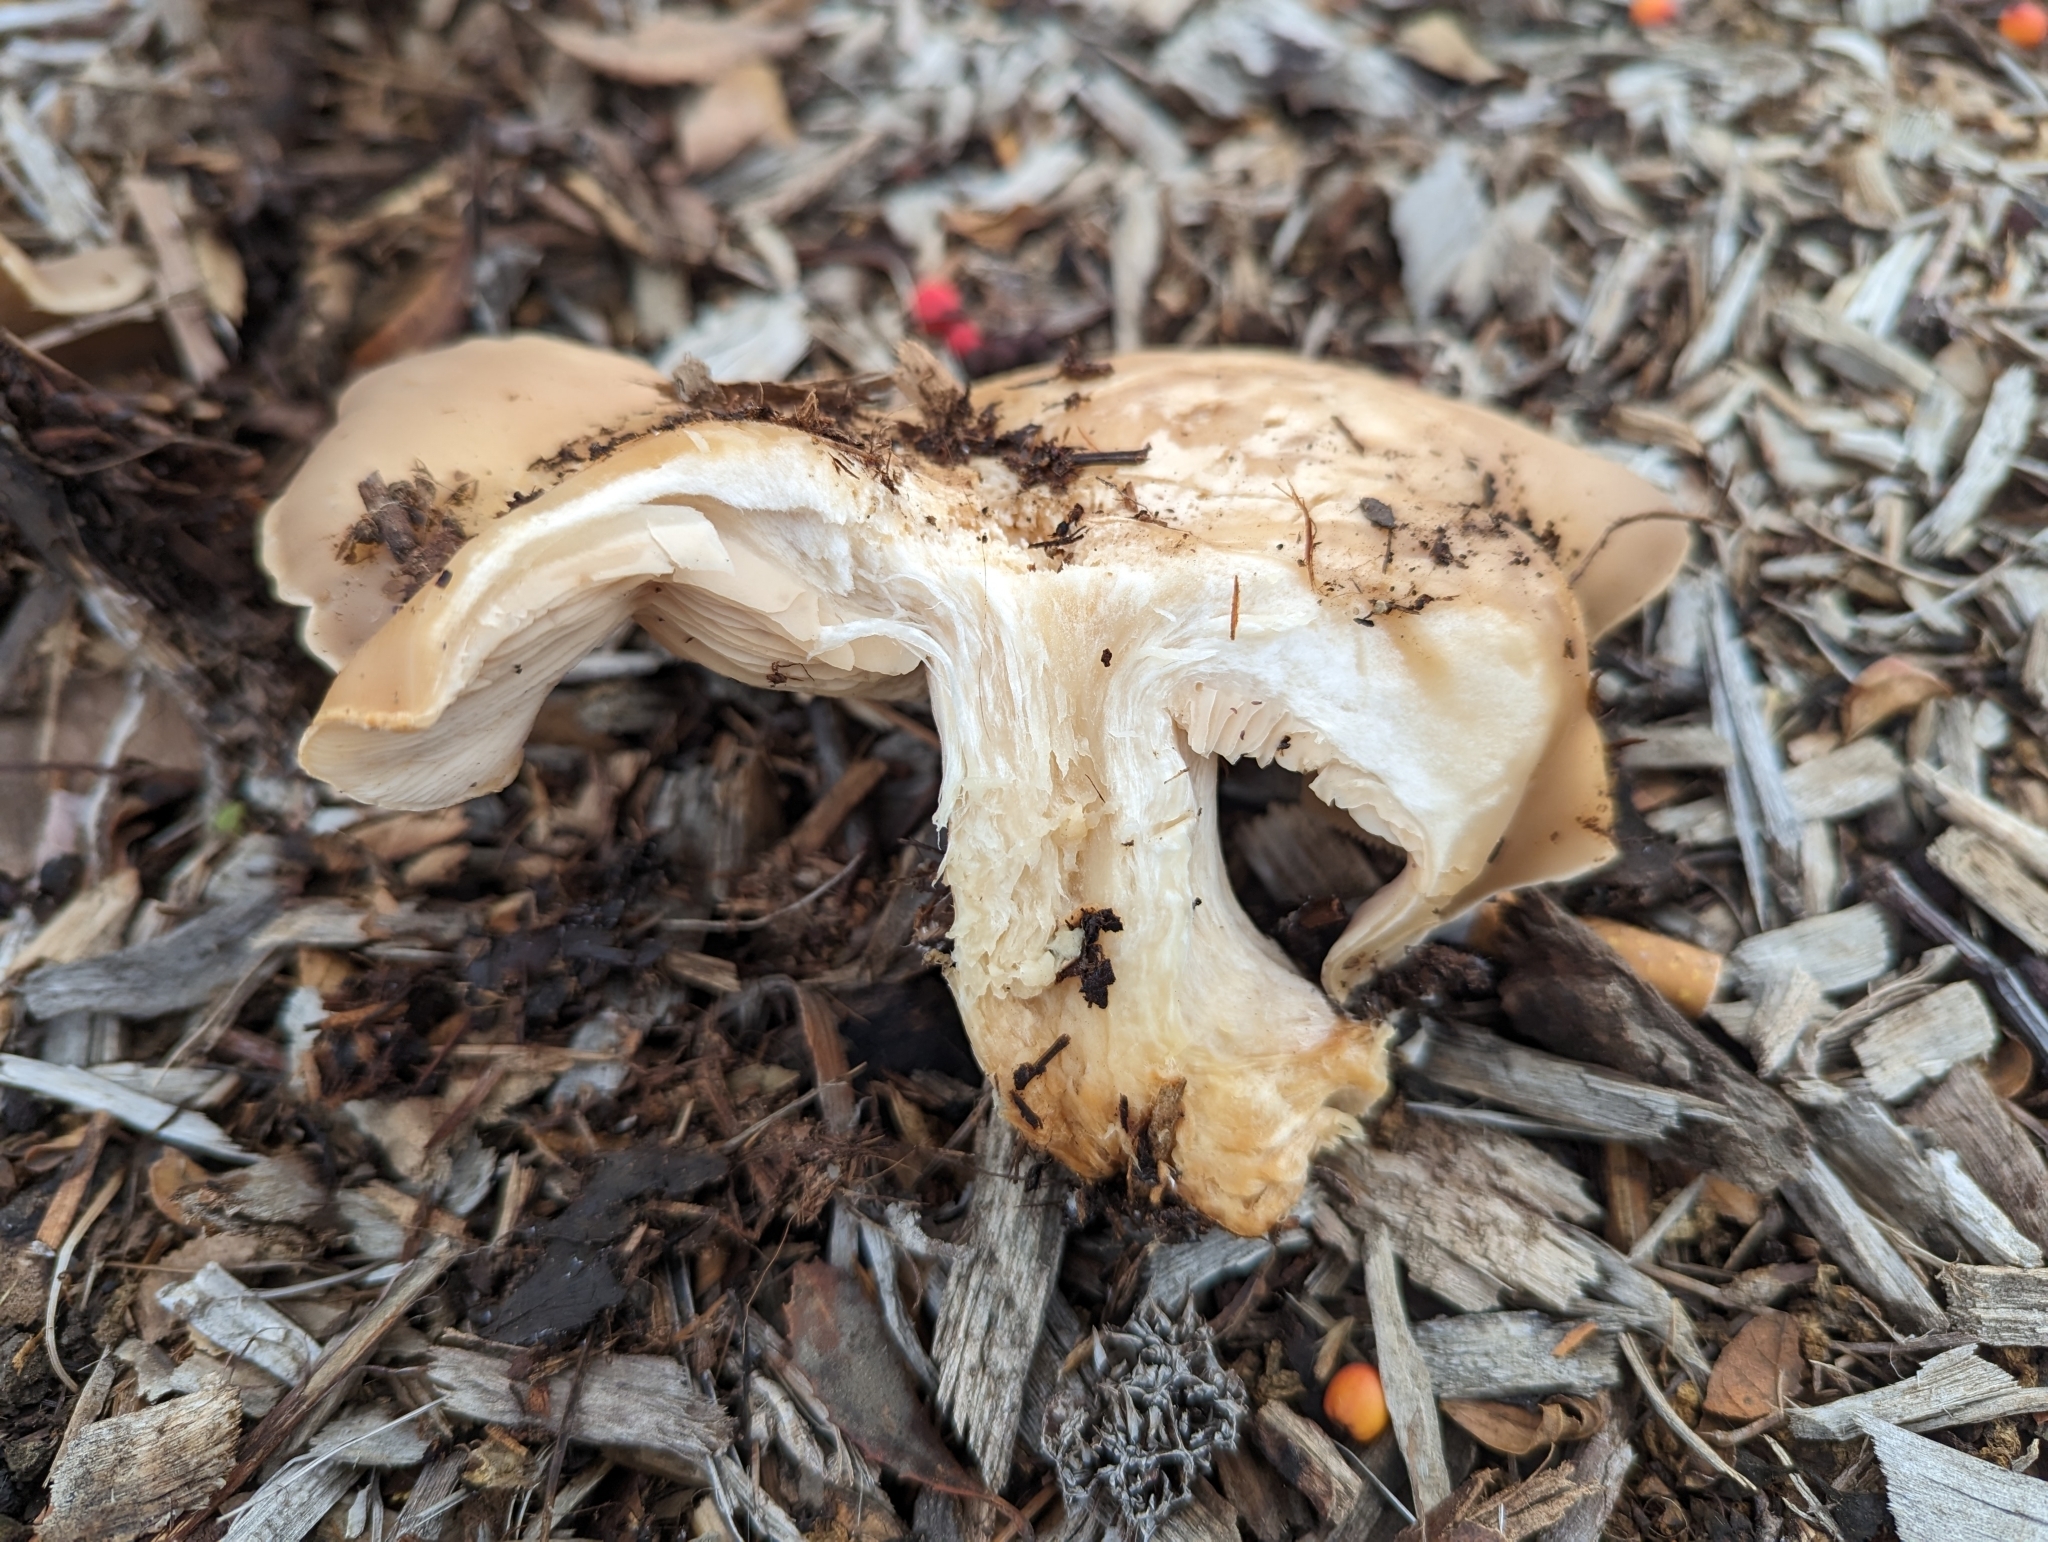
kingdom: Fungi
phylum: Basidiomycota
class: Agaricomycetes
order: Agaricales
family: Tricholomataceae
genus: Collybia
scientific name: Collybia
